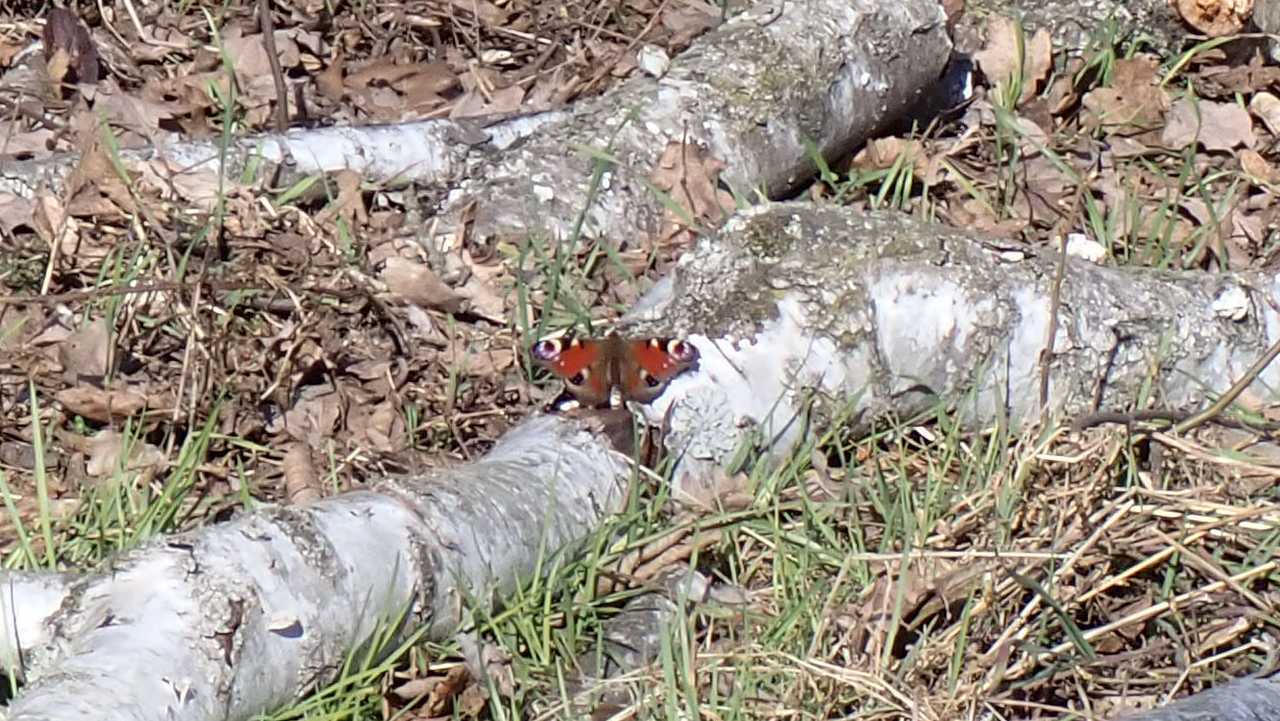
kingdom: Animalia
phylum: Arthropoda
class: Insecta
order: Lepidoptera
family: Nymphalidae
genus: Aglais
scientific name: Aglais io
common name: Peacock
